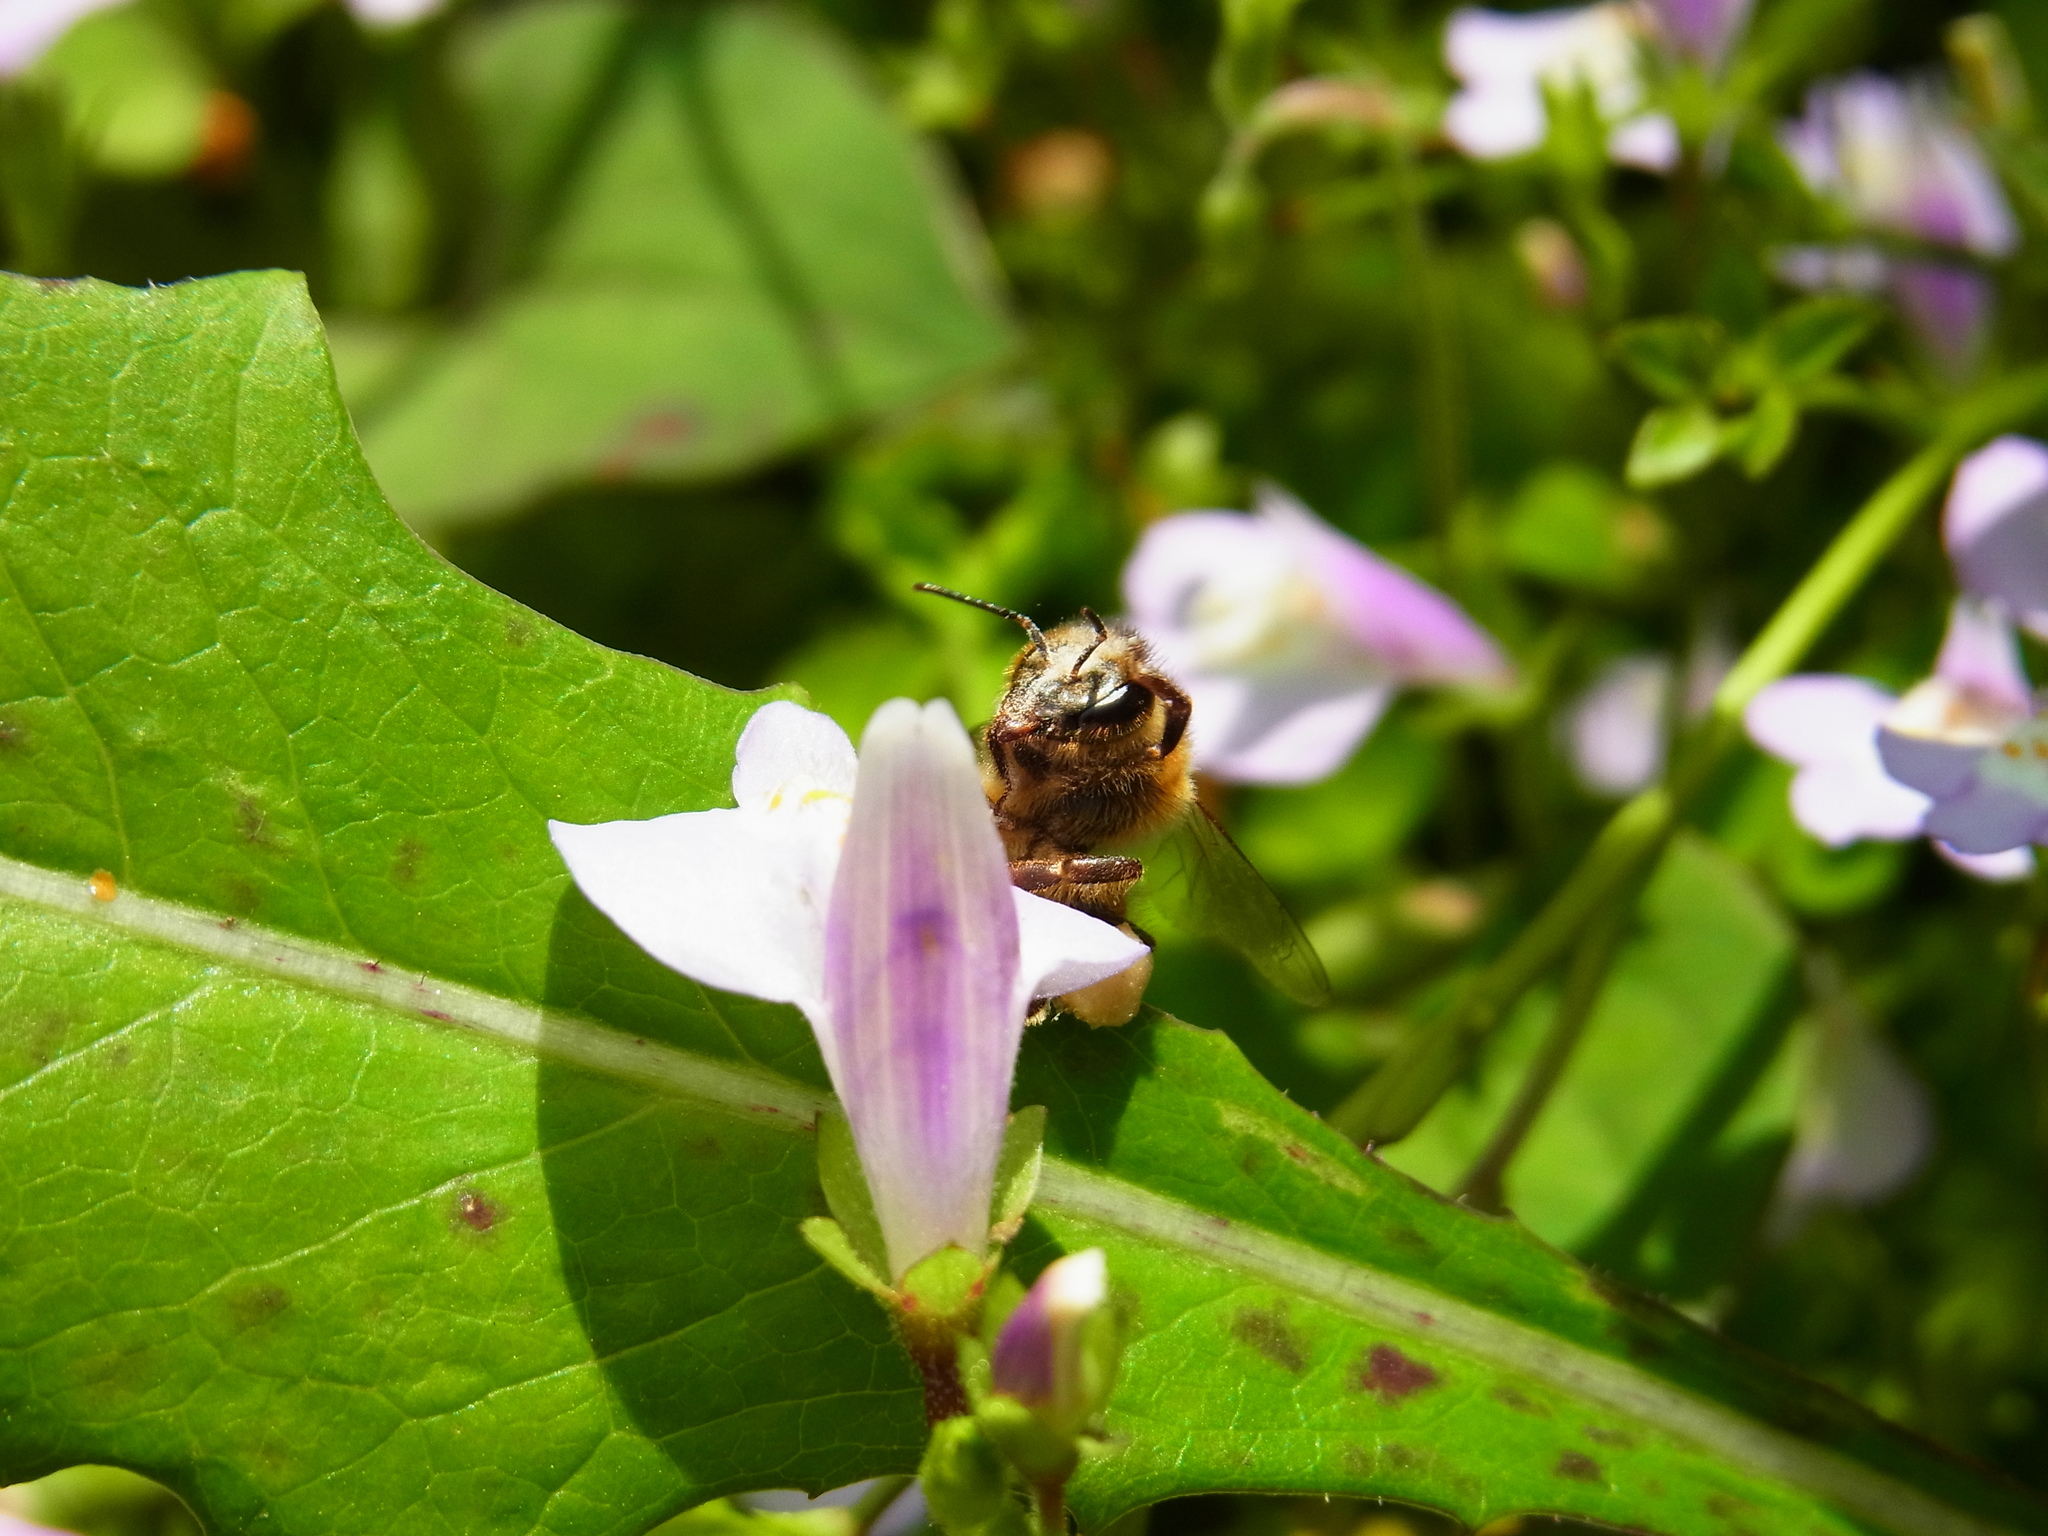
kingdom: Animalia
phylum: Arthropoda
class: Insecta
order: Hymenoptera
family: Apidae
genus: Apis
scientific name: Apis mellifera
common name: Honey bee
